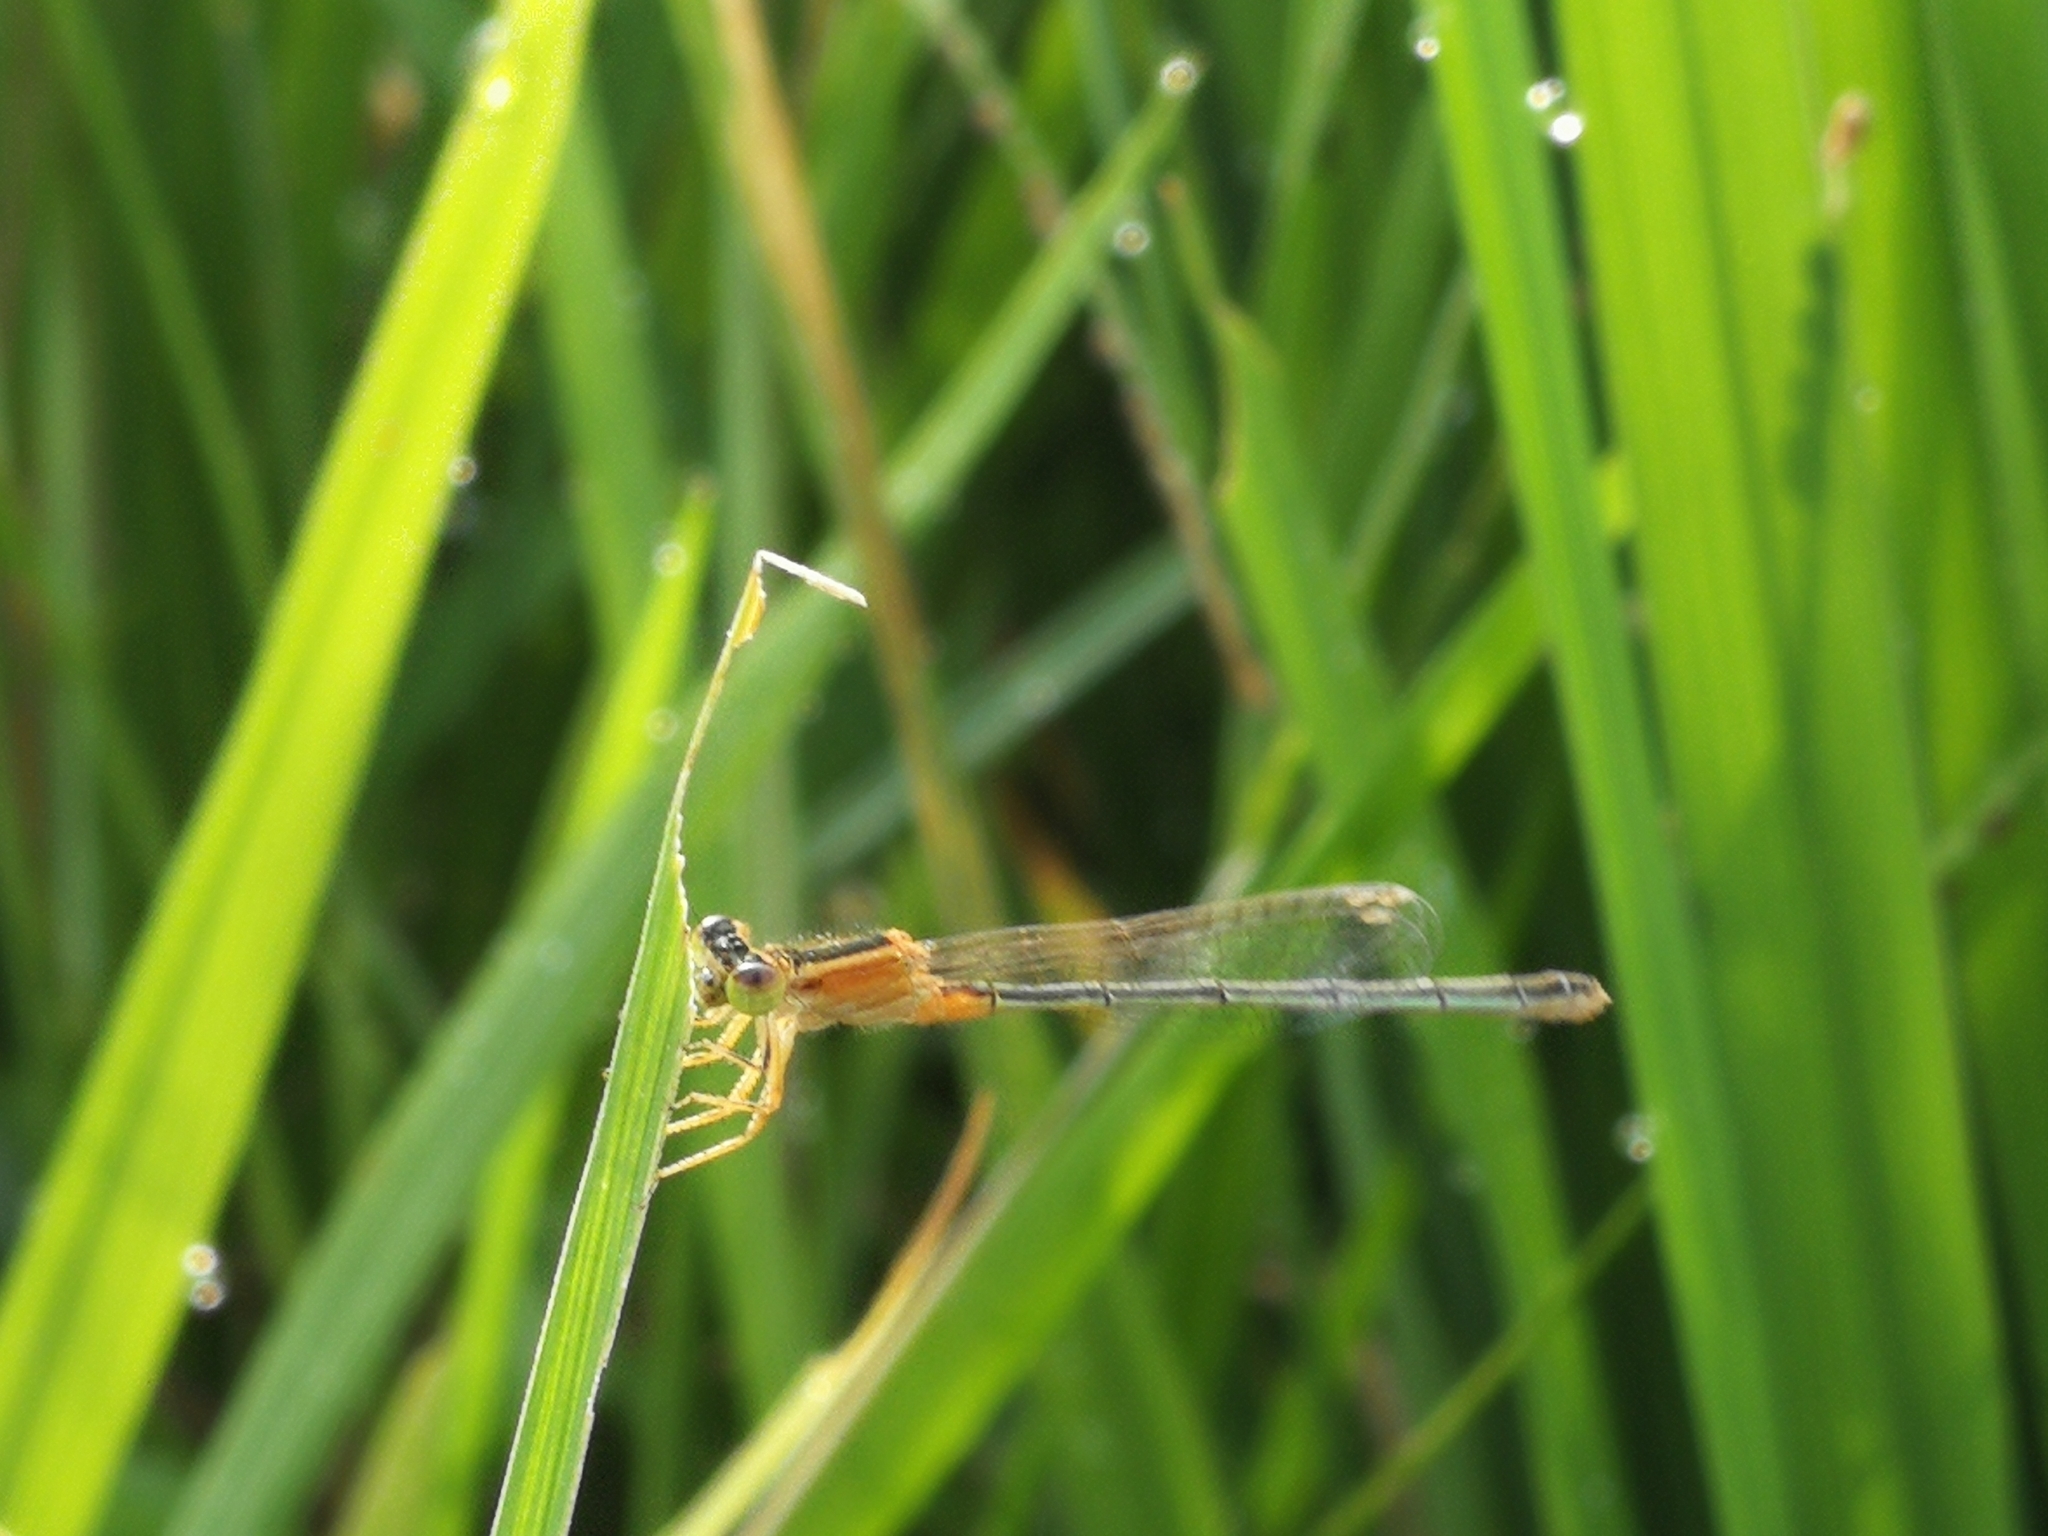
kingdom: Animalia
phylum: Arthropoda
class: Insecta
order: Odonata
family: Coenagrionidae
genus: Ischnura
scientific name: Ischnura senegalensis
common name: Tropical bluetail
